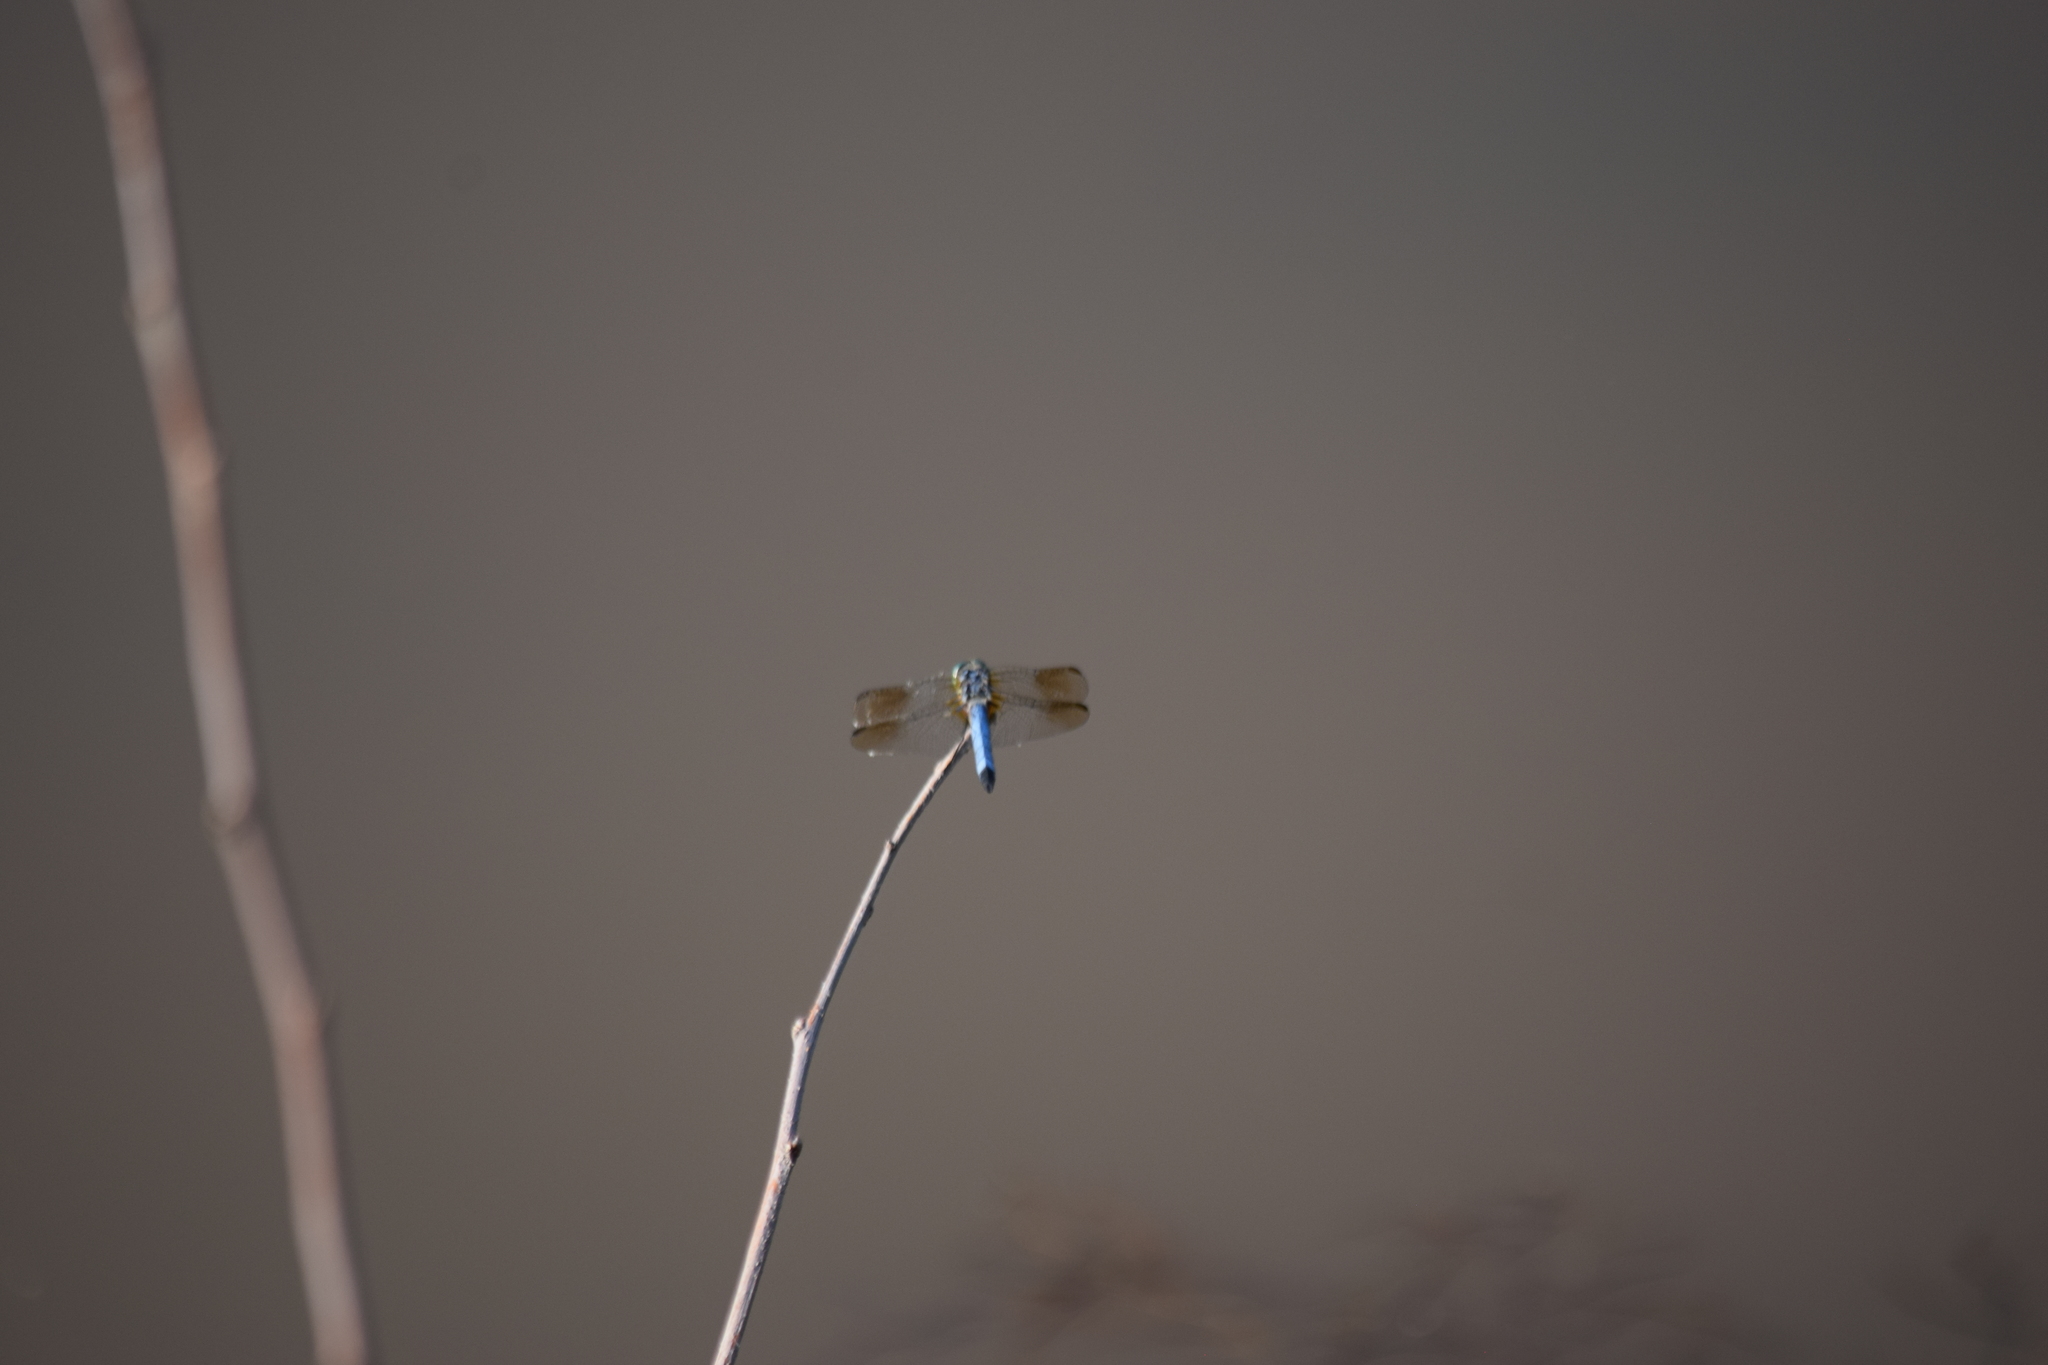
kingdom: Animalia
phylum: Arthropoda
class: Insecta
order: Odonata
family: Libellulidae
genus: Pachydiplax
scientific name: Pachydiplax longipennis
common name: Blue dasher
